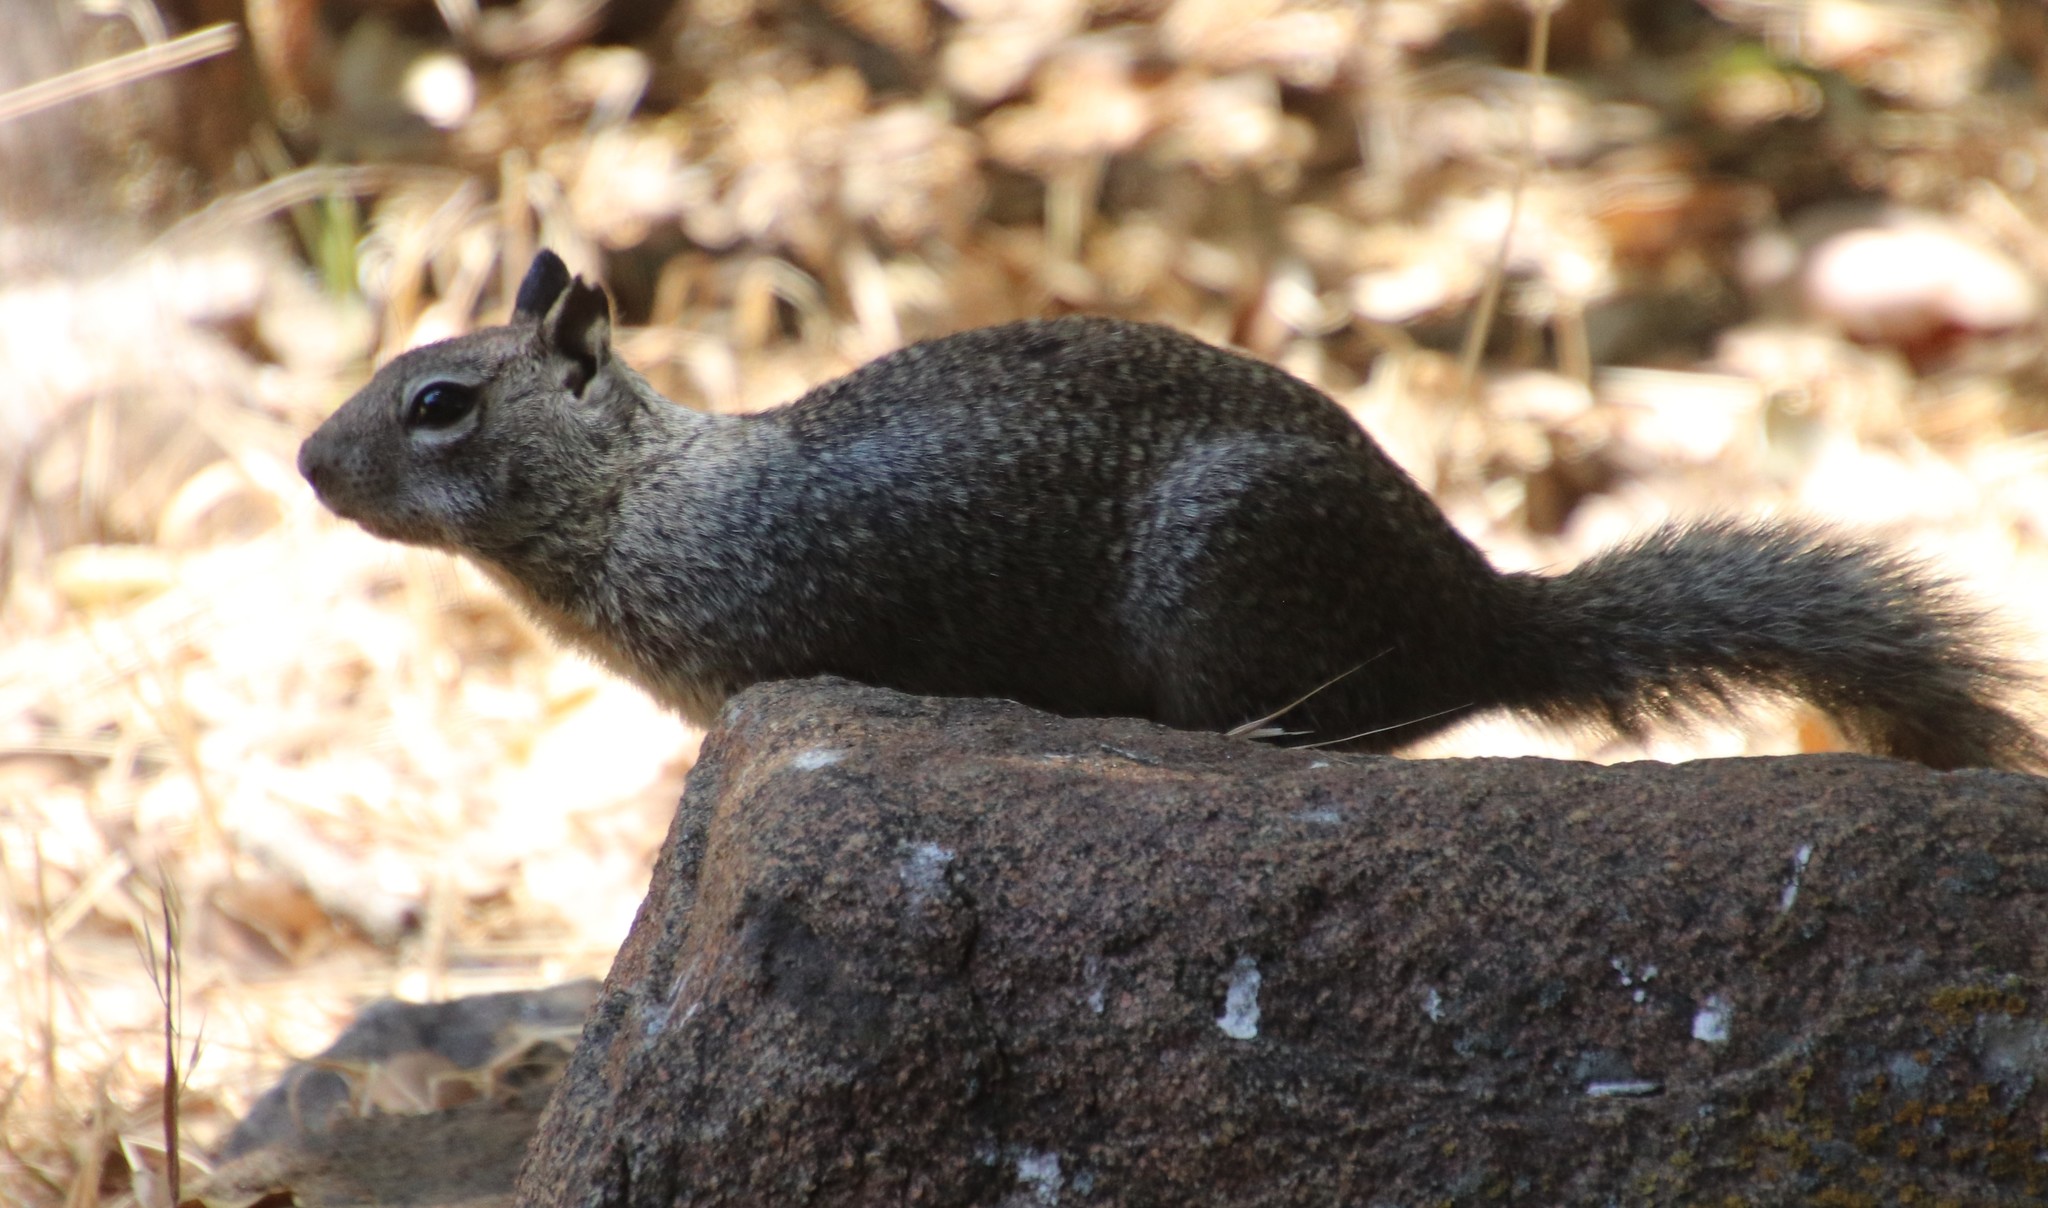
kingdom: Animalia
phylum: Chordata
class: Mammalia
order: Rodentia
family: Sciuridae
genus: Otospermophilus
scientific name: Otospermophilus beecheyi
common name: California ground squirrel
